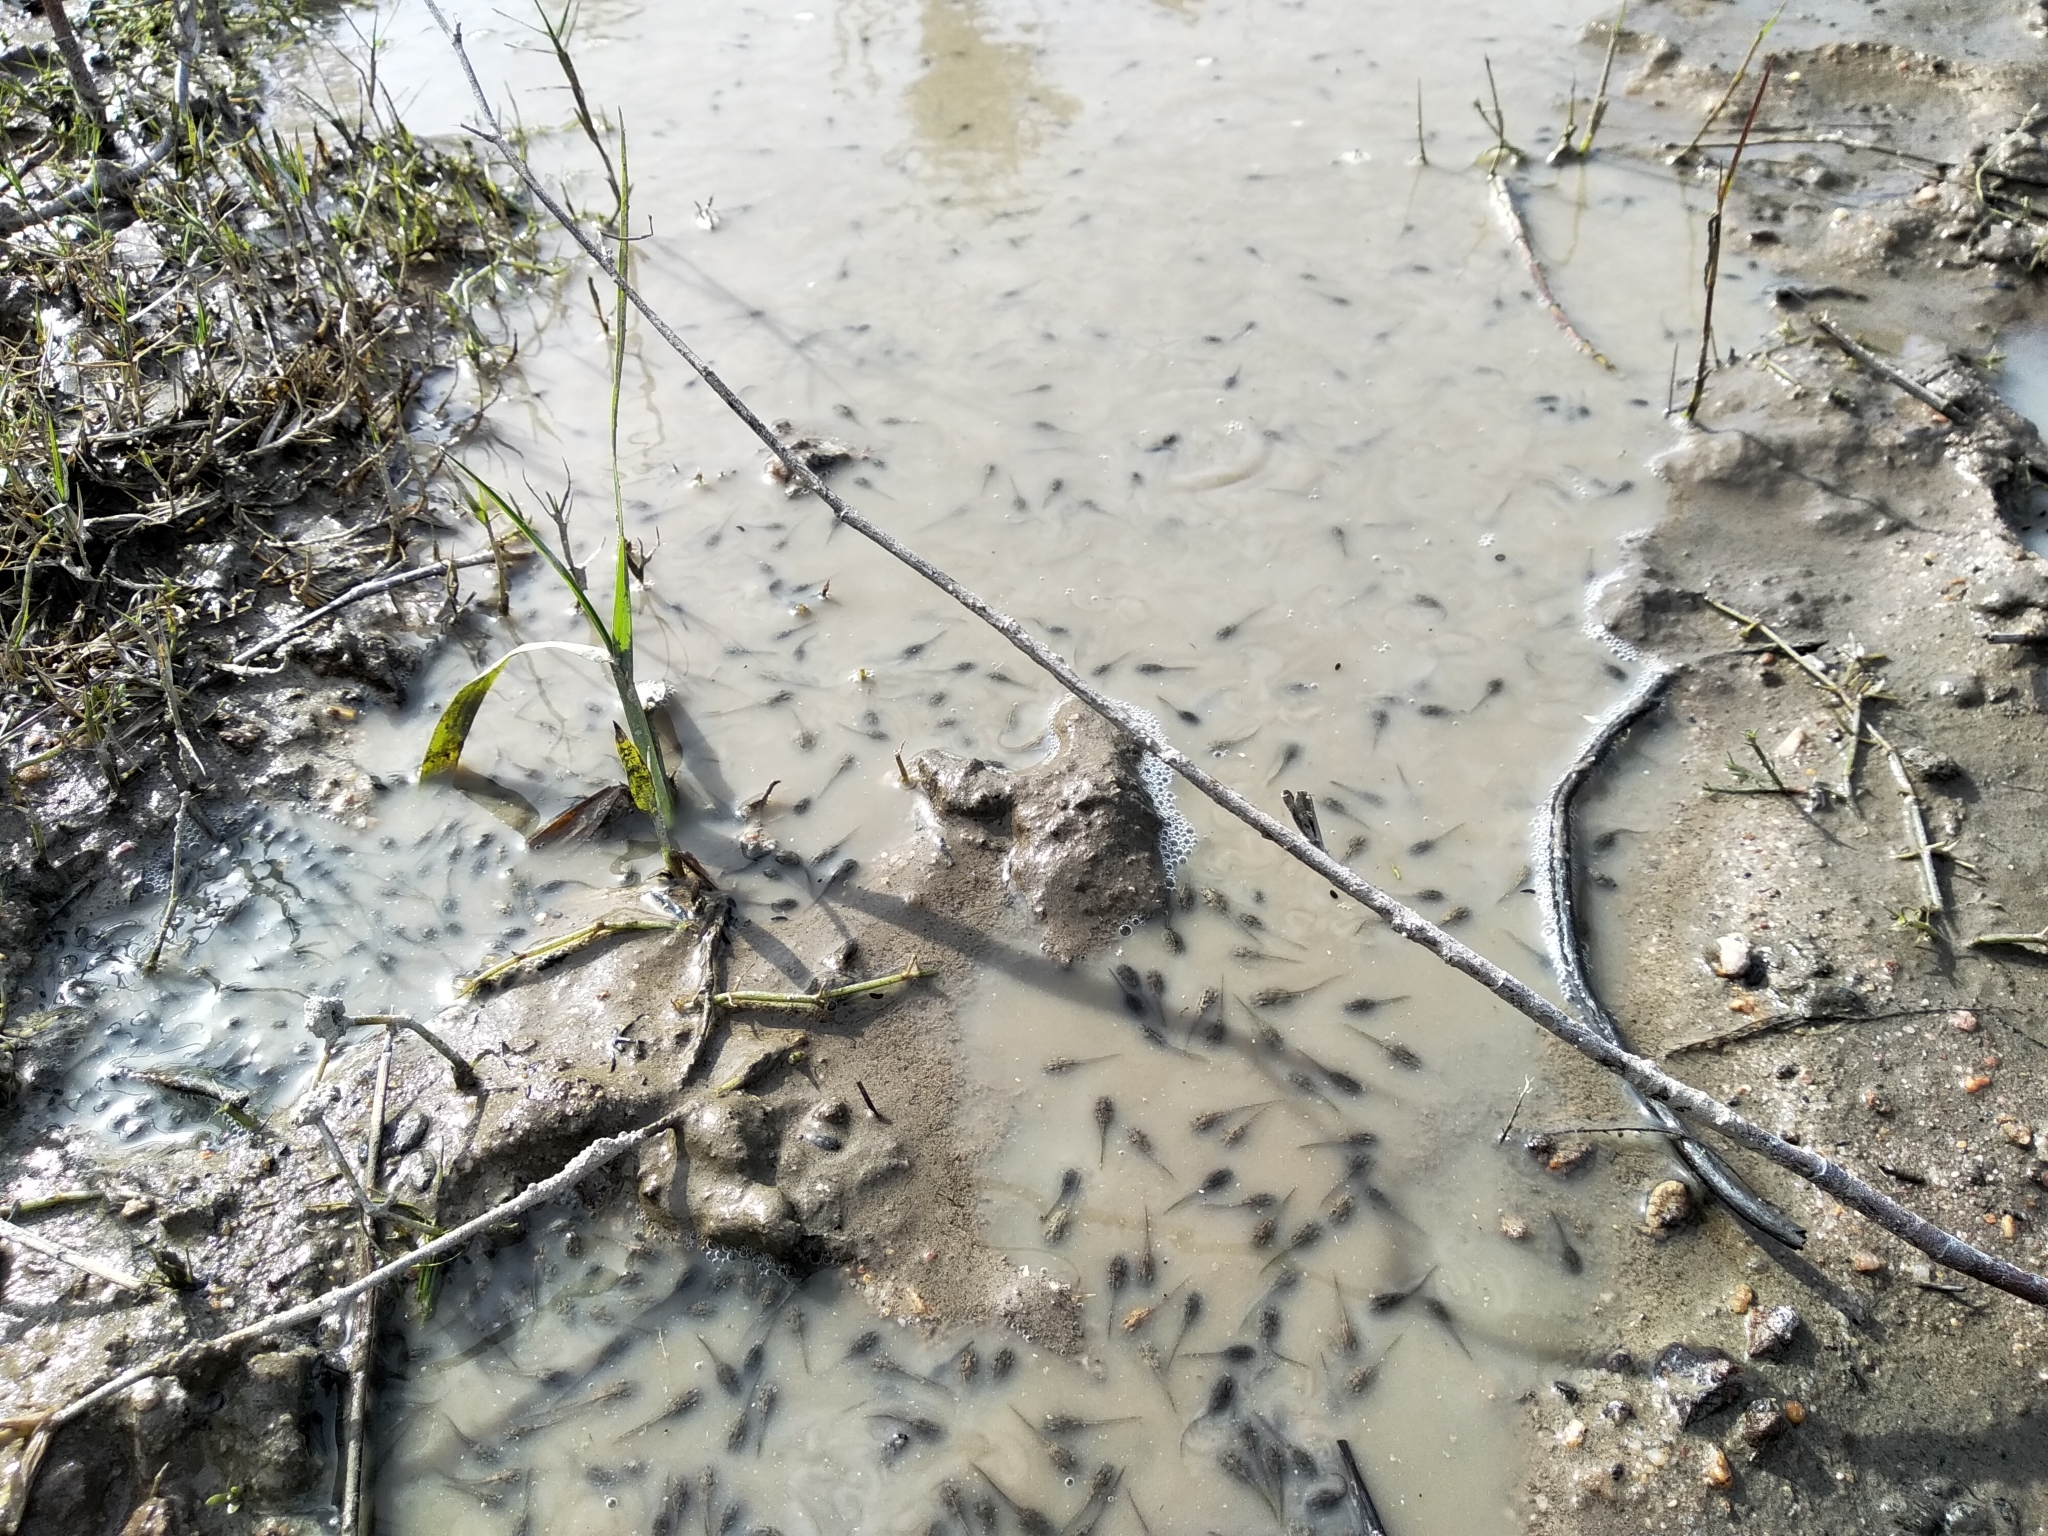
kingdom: Animalia
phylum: Chordata
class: Amphibia
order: Anura
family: Bufonidae
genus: Vandijkophrynus
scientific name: Vandijkophrynus angusticeps
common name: Sand toad
